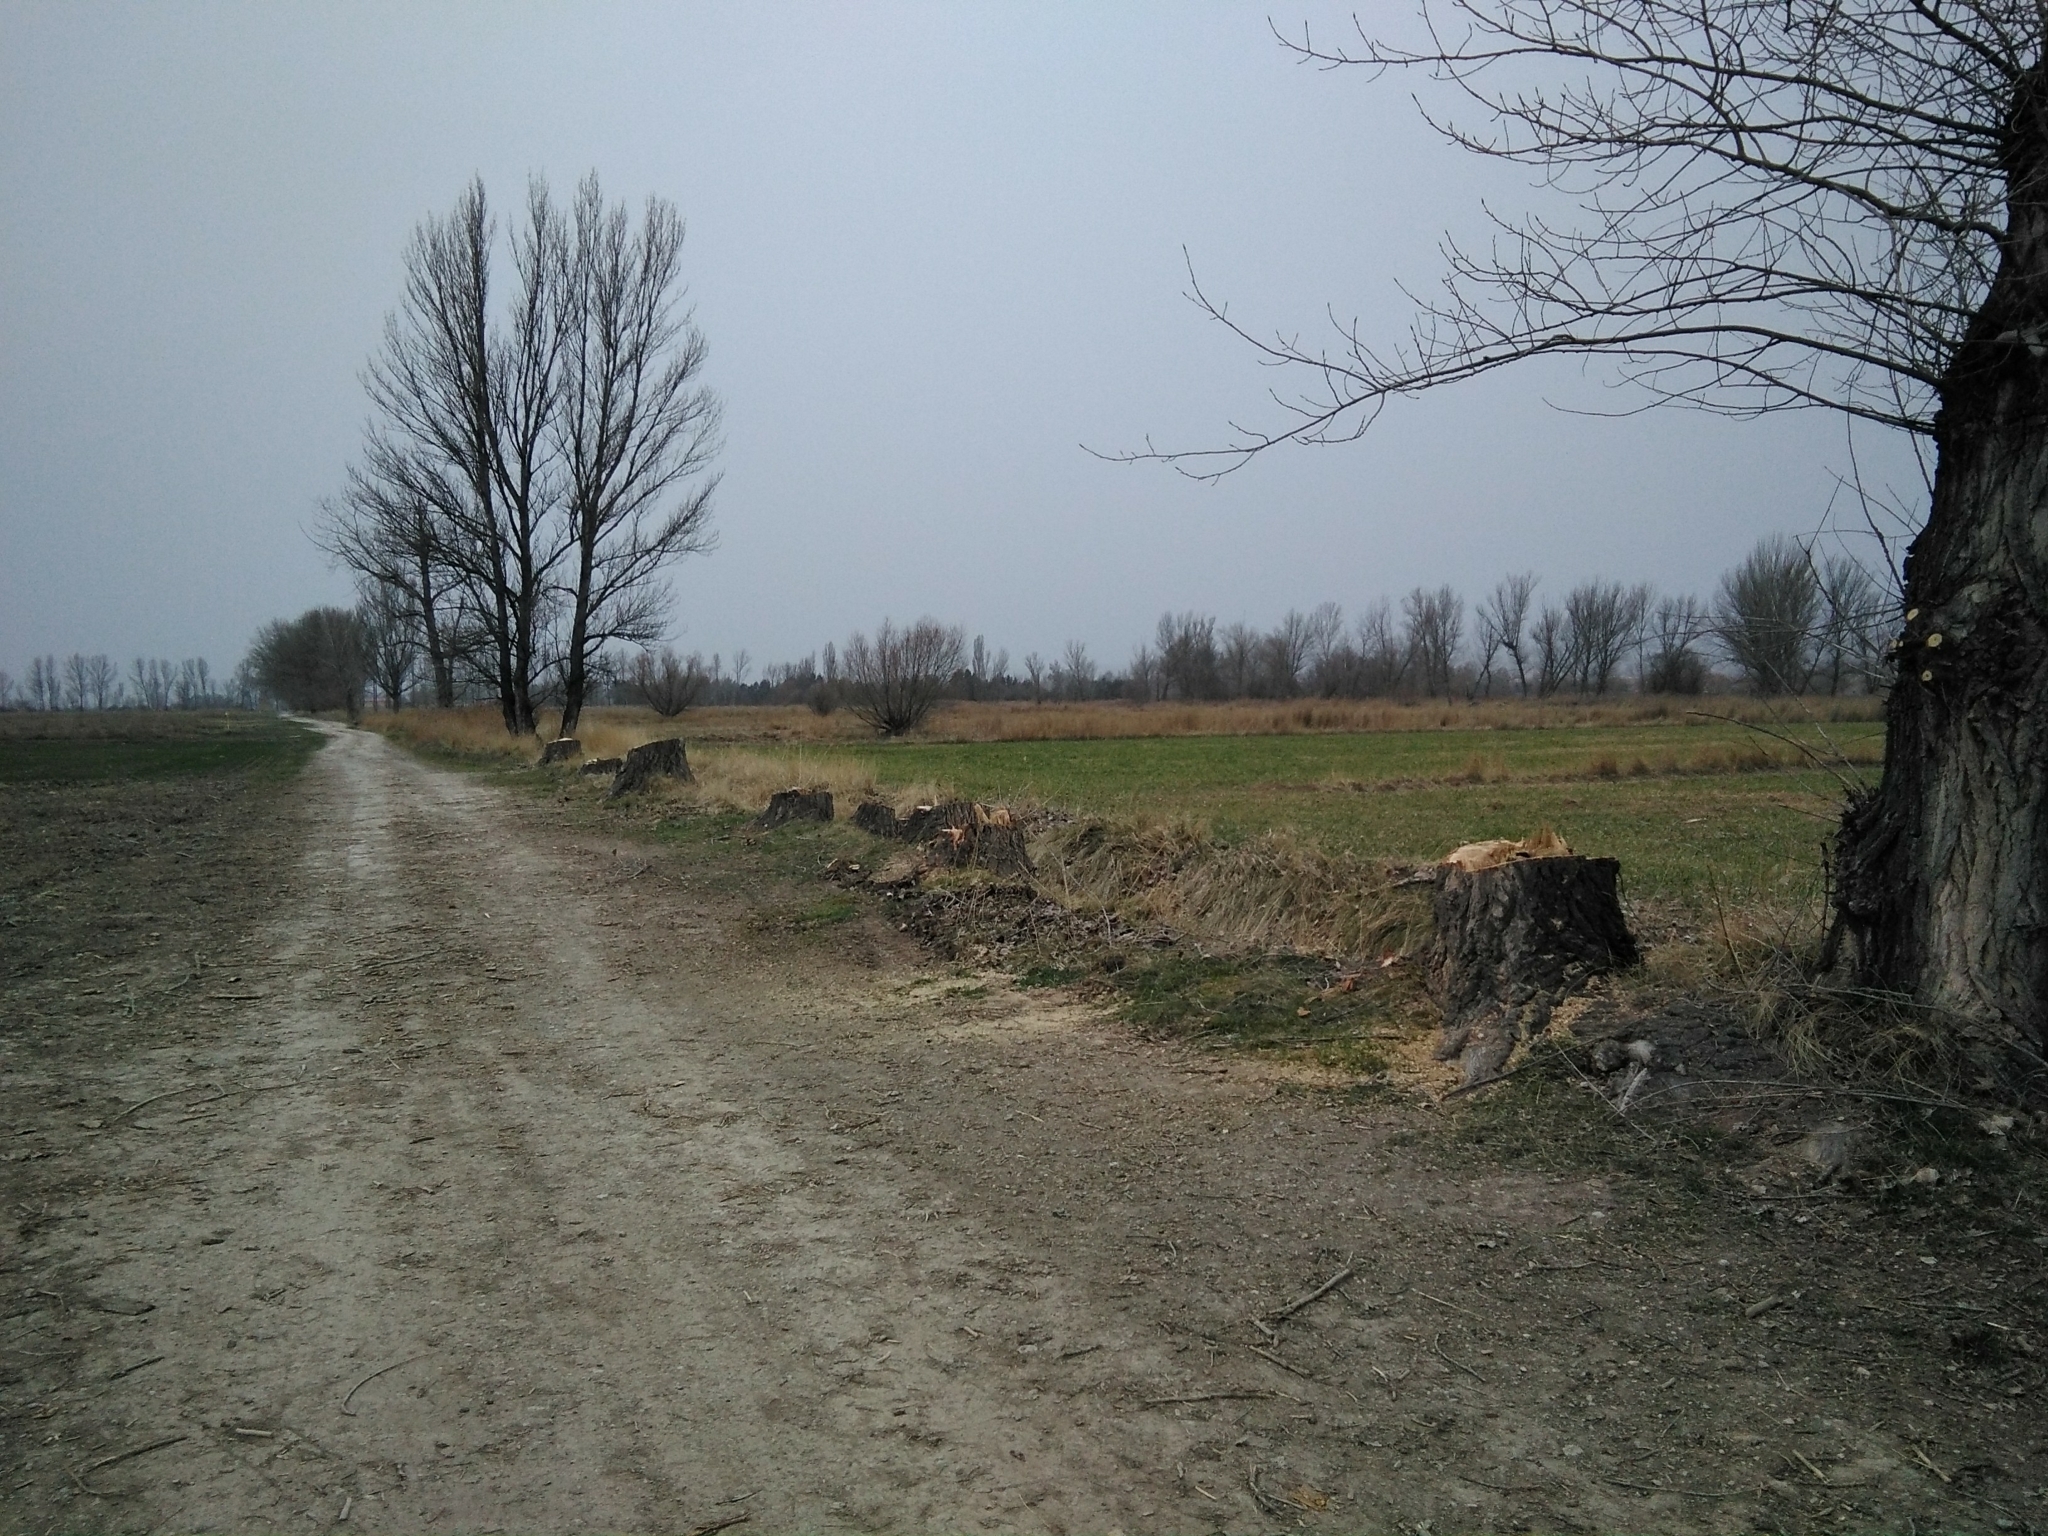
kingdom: Plantae
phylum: Tracheophyta
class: Magnoliopsida
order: Malpighiales
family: Salicaceae
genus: Populus
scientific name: Populus nigra
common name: Black poplar
